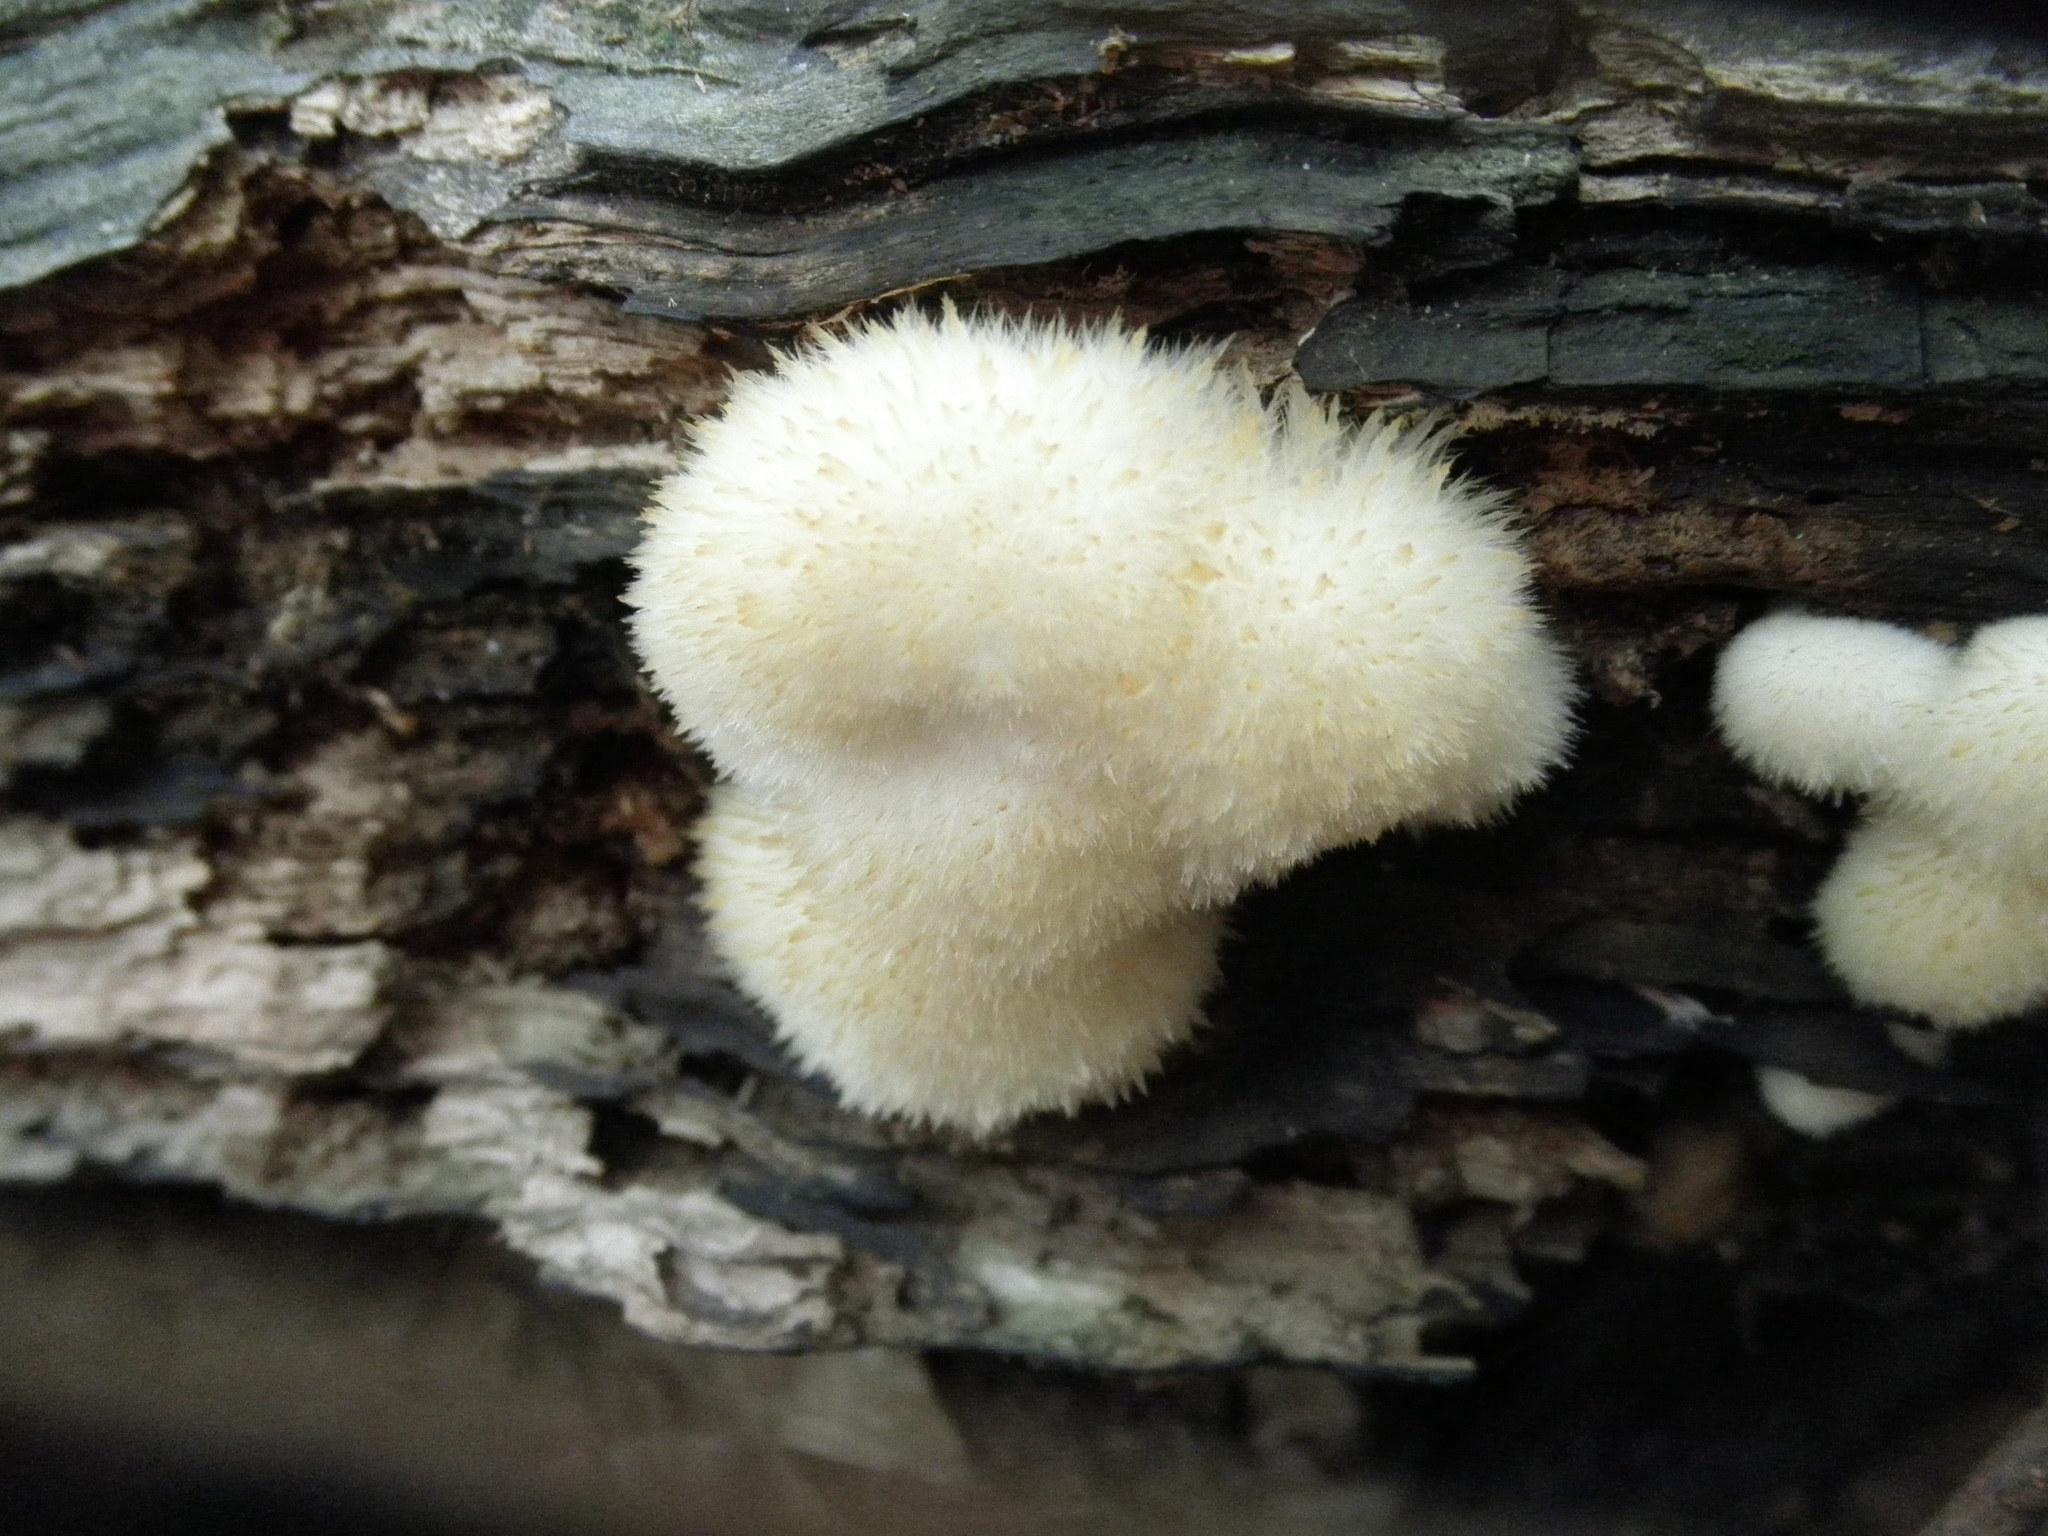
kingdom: Fungi
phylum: Basidiomycota
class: Agaricomycetes
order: Polyporales
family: Dacryobolaceae
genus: Postia
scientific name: Postia ptychogaster
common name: Powderpuff bracket
